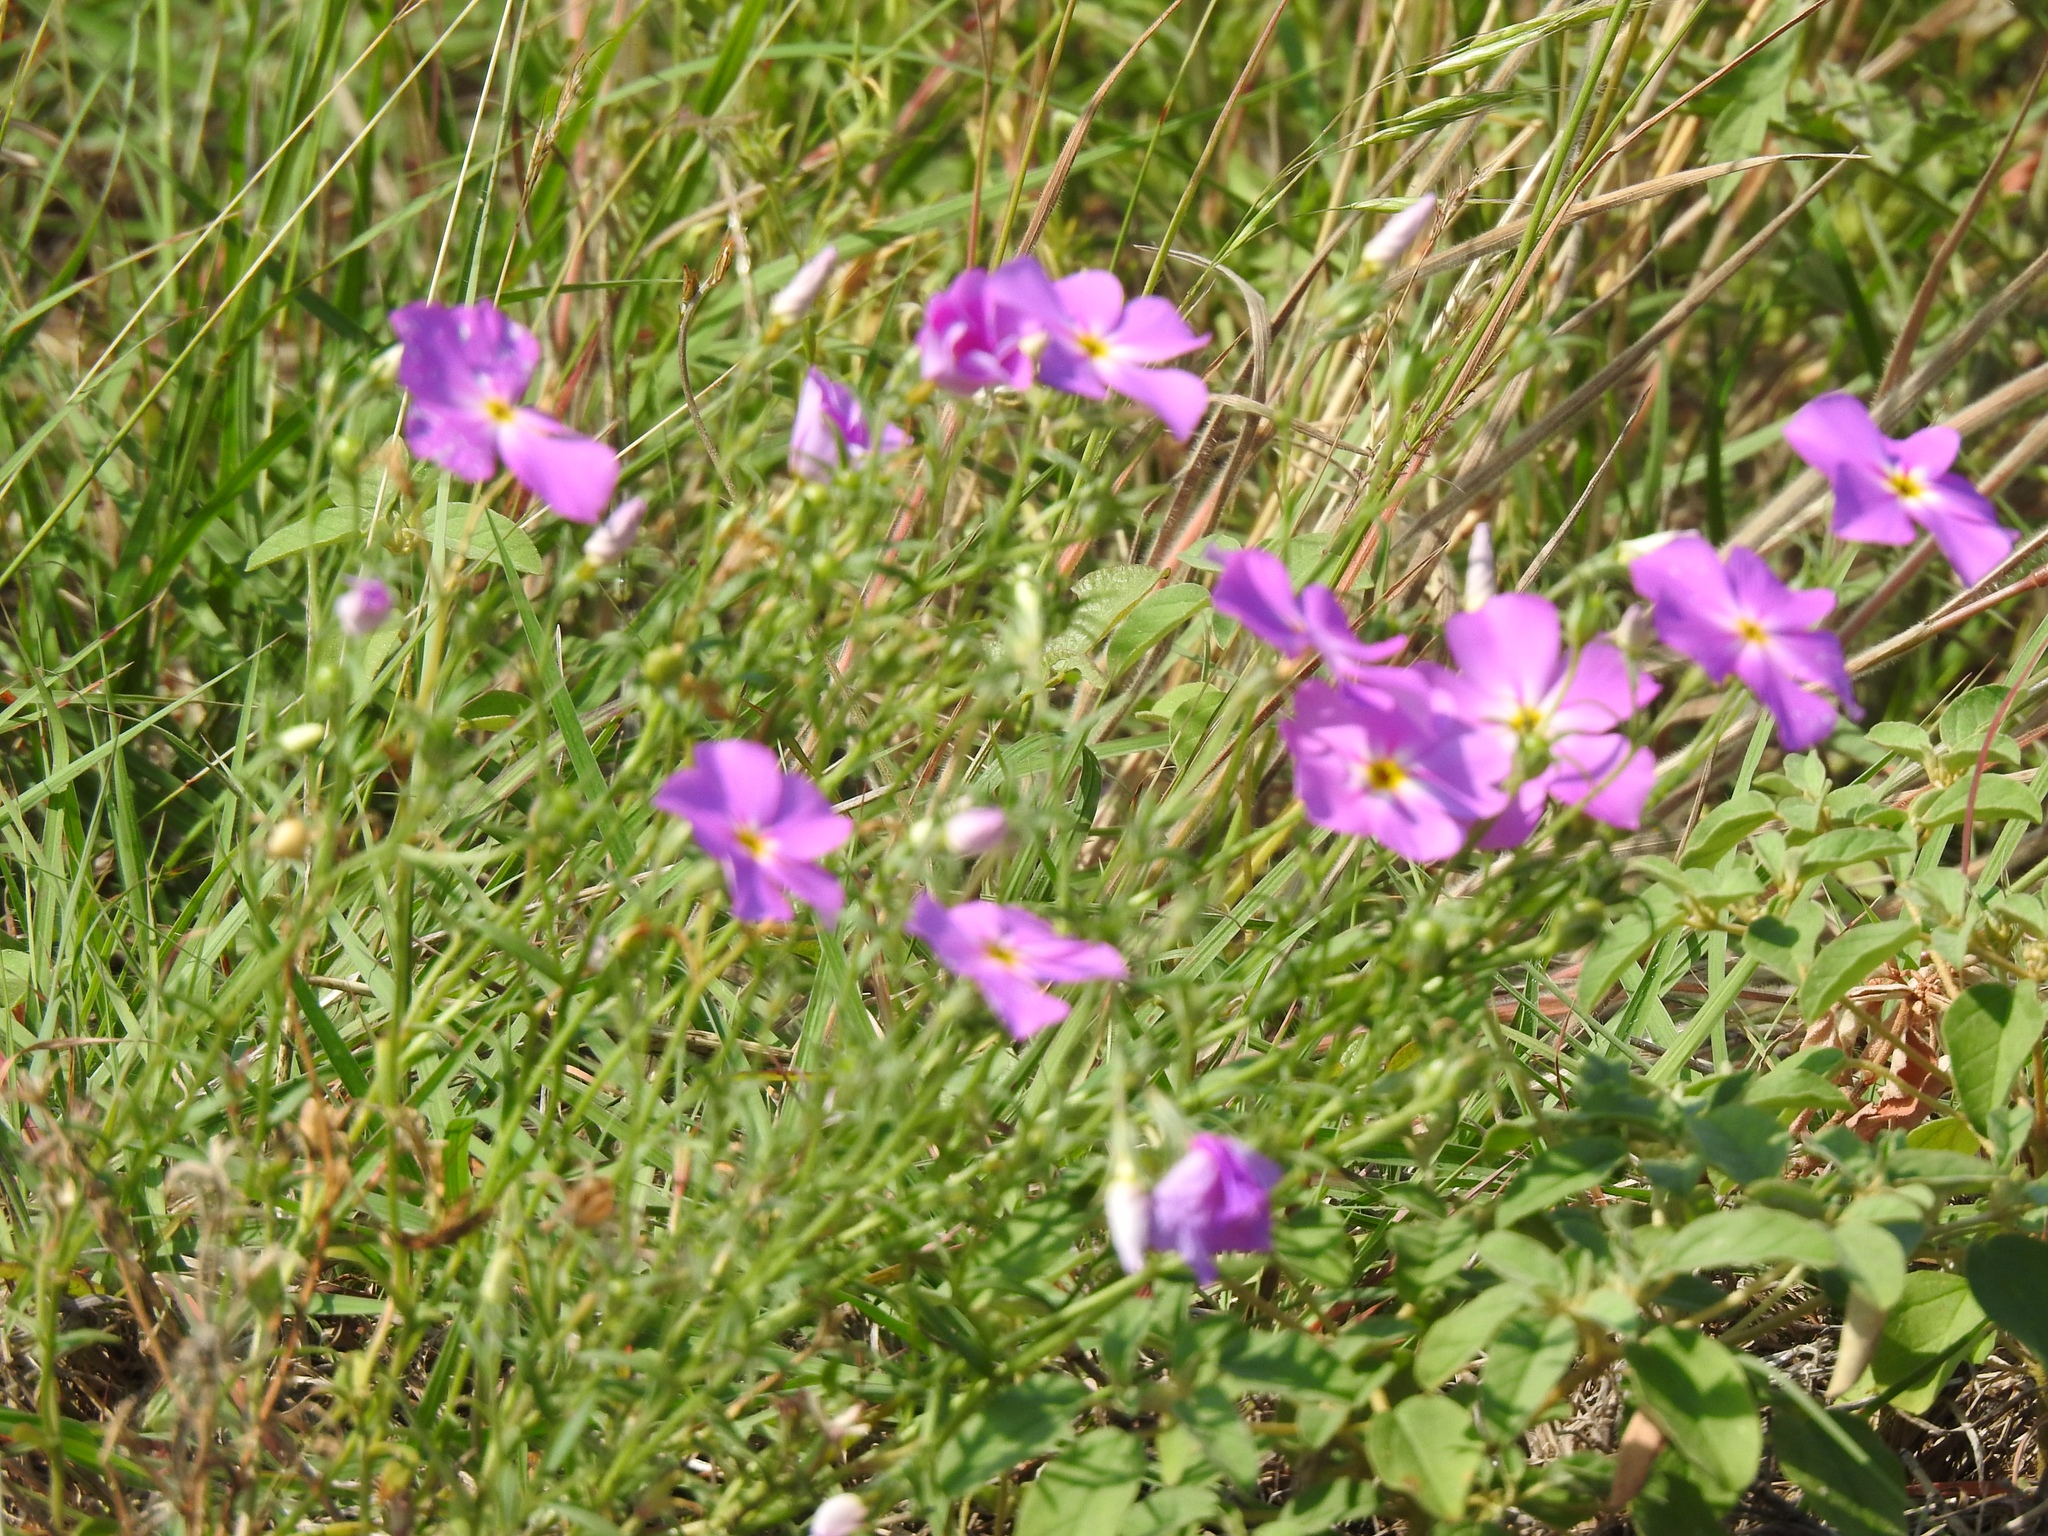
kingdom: Plantae
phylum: Tracheophyta
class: Magnoliopsida
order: Ericales
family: Polemoniaceae
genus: Phlox
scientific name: Phlox roemeriana
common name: Roemer's phlox
